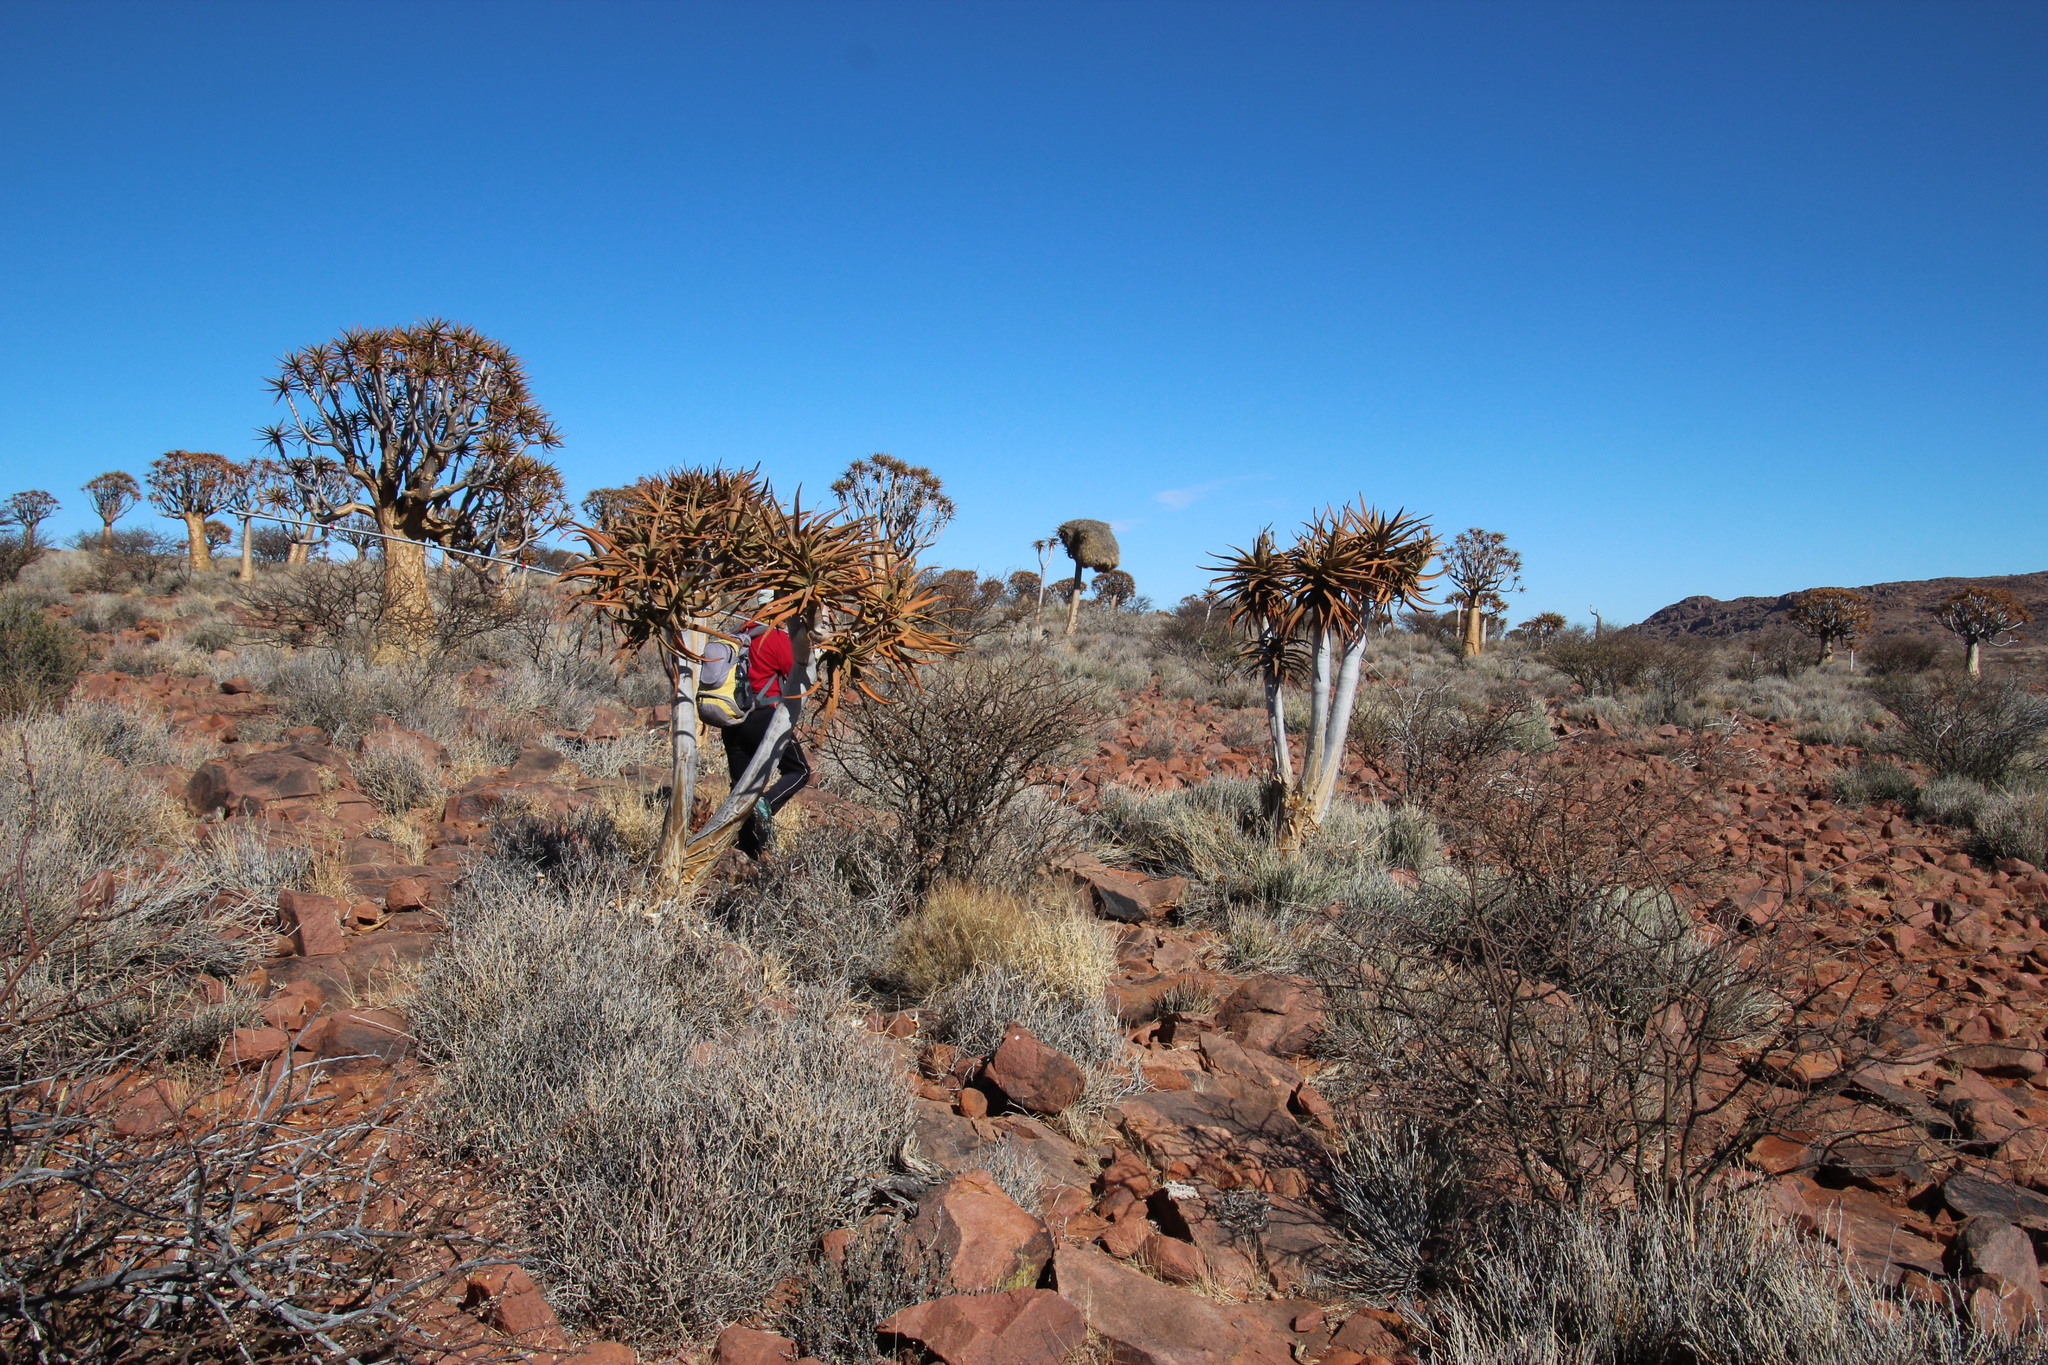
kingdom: Animalia
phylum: Chordata
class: Aves
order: Passeriformes
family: Passeridae
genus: Philetairus
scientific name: Philetairus socius
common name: Sociable weaver
